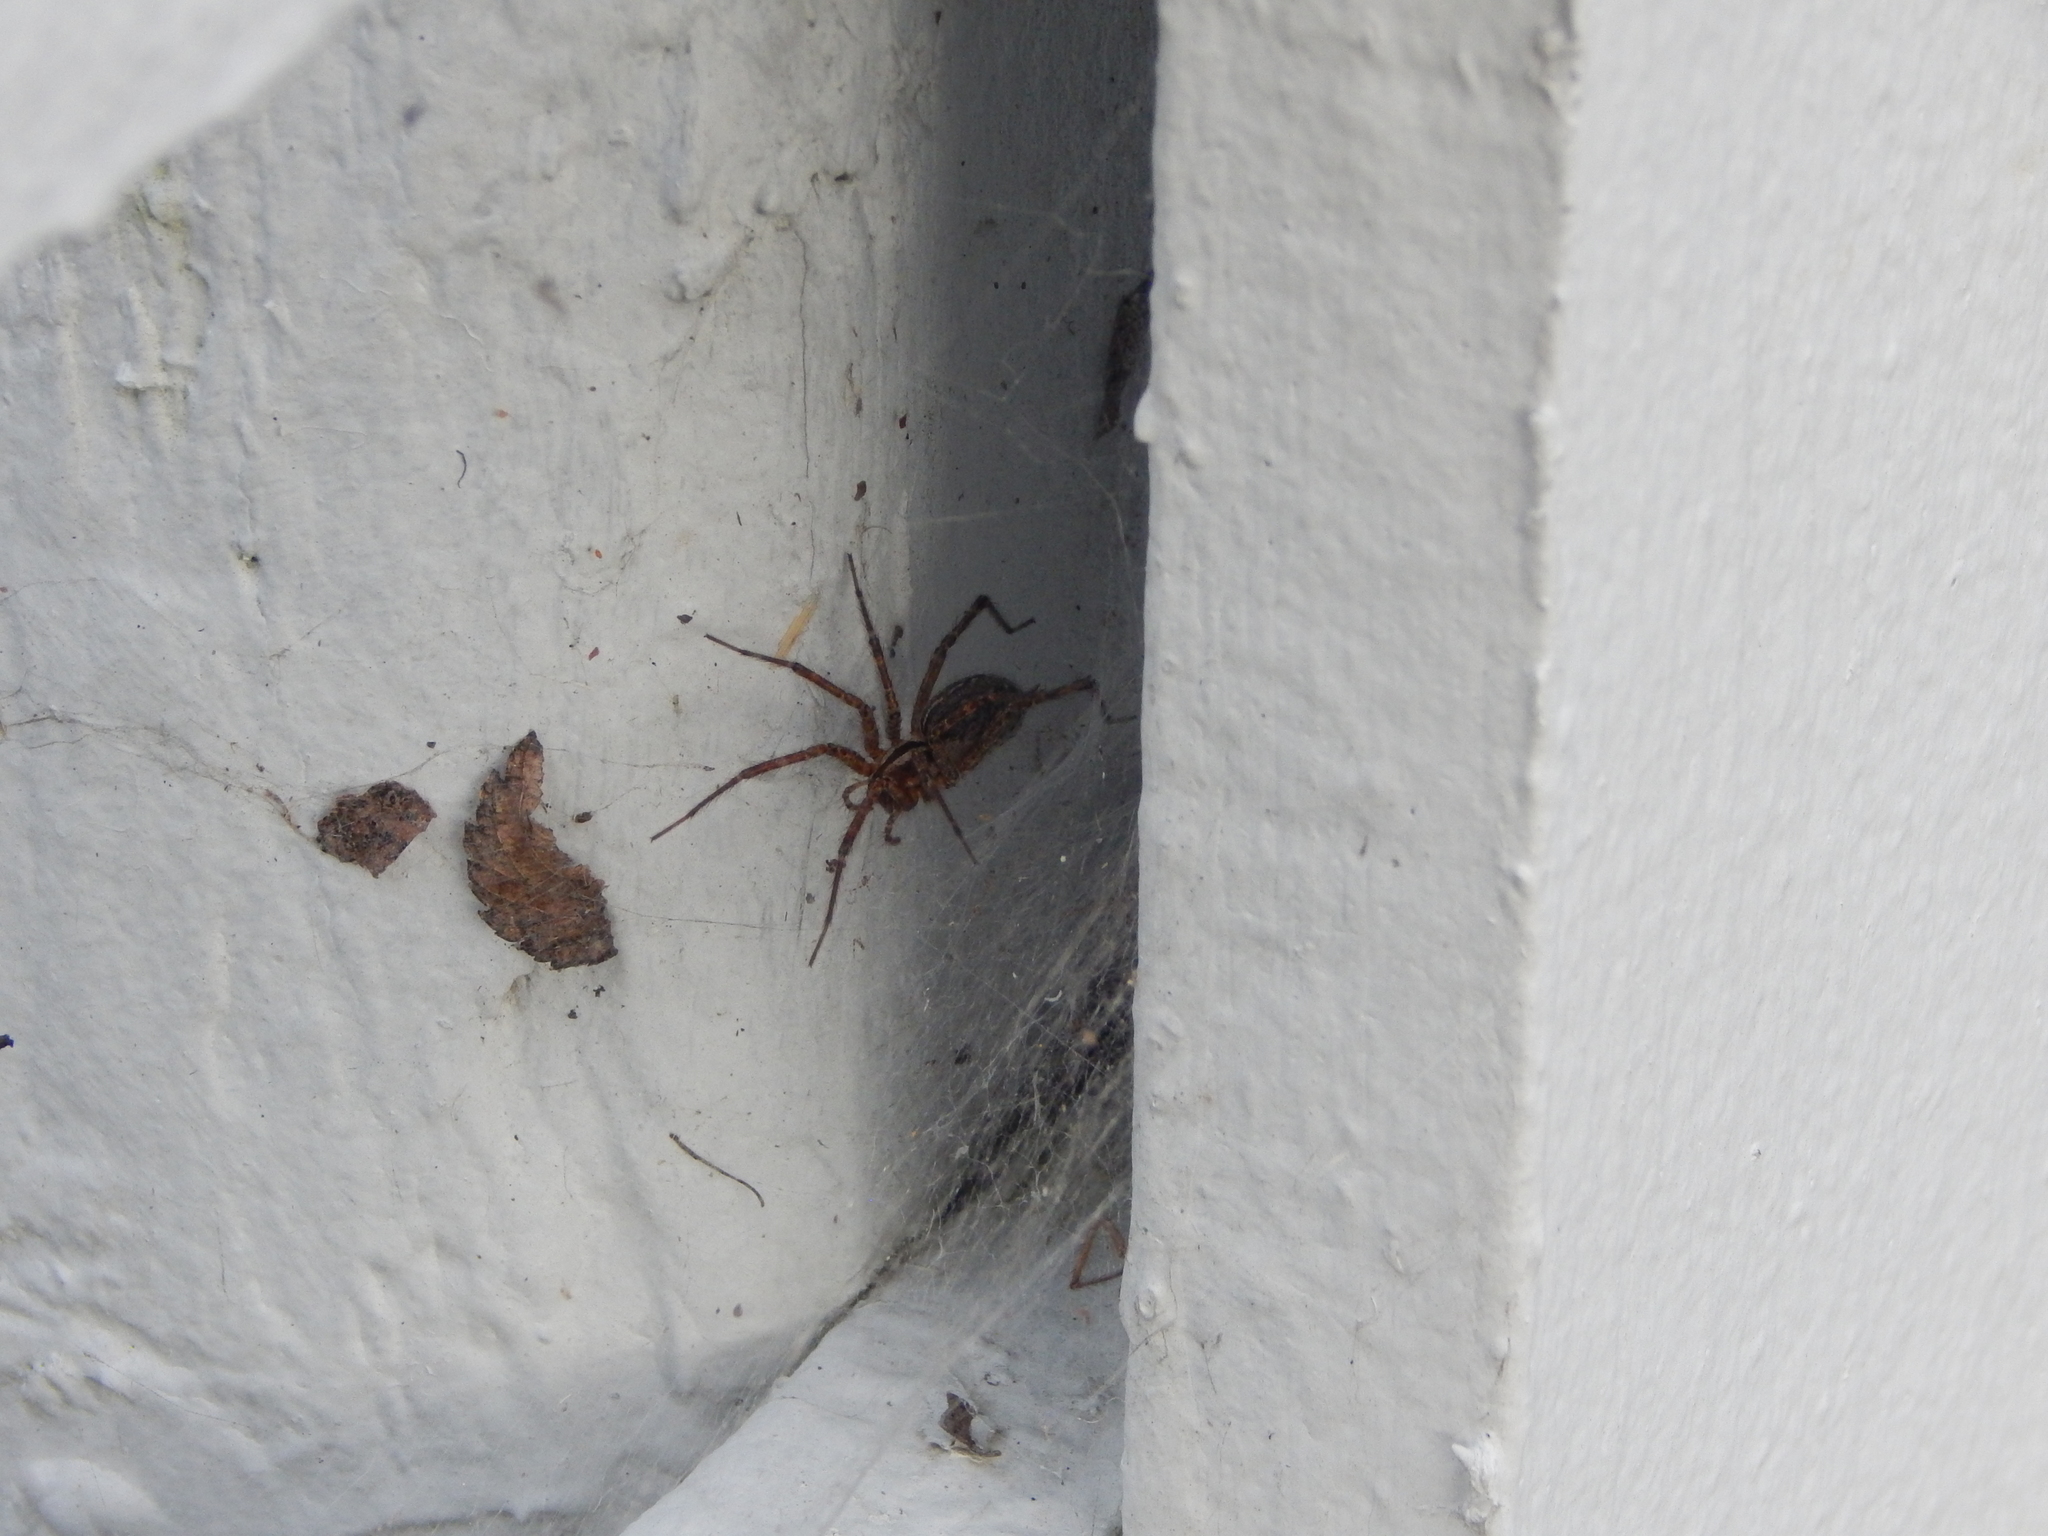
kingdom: Animalia
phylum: Arthropoda
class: Arachnida
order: Araneae
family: Agelenidae
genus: Agelenopsis
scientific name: Agelenopsis
